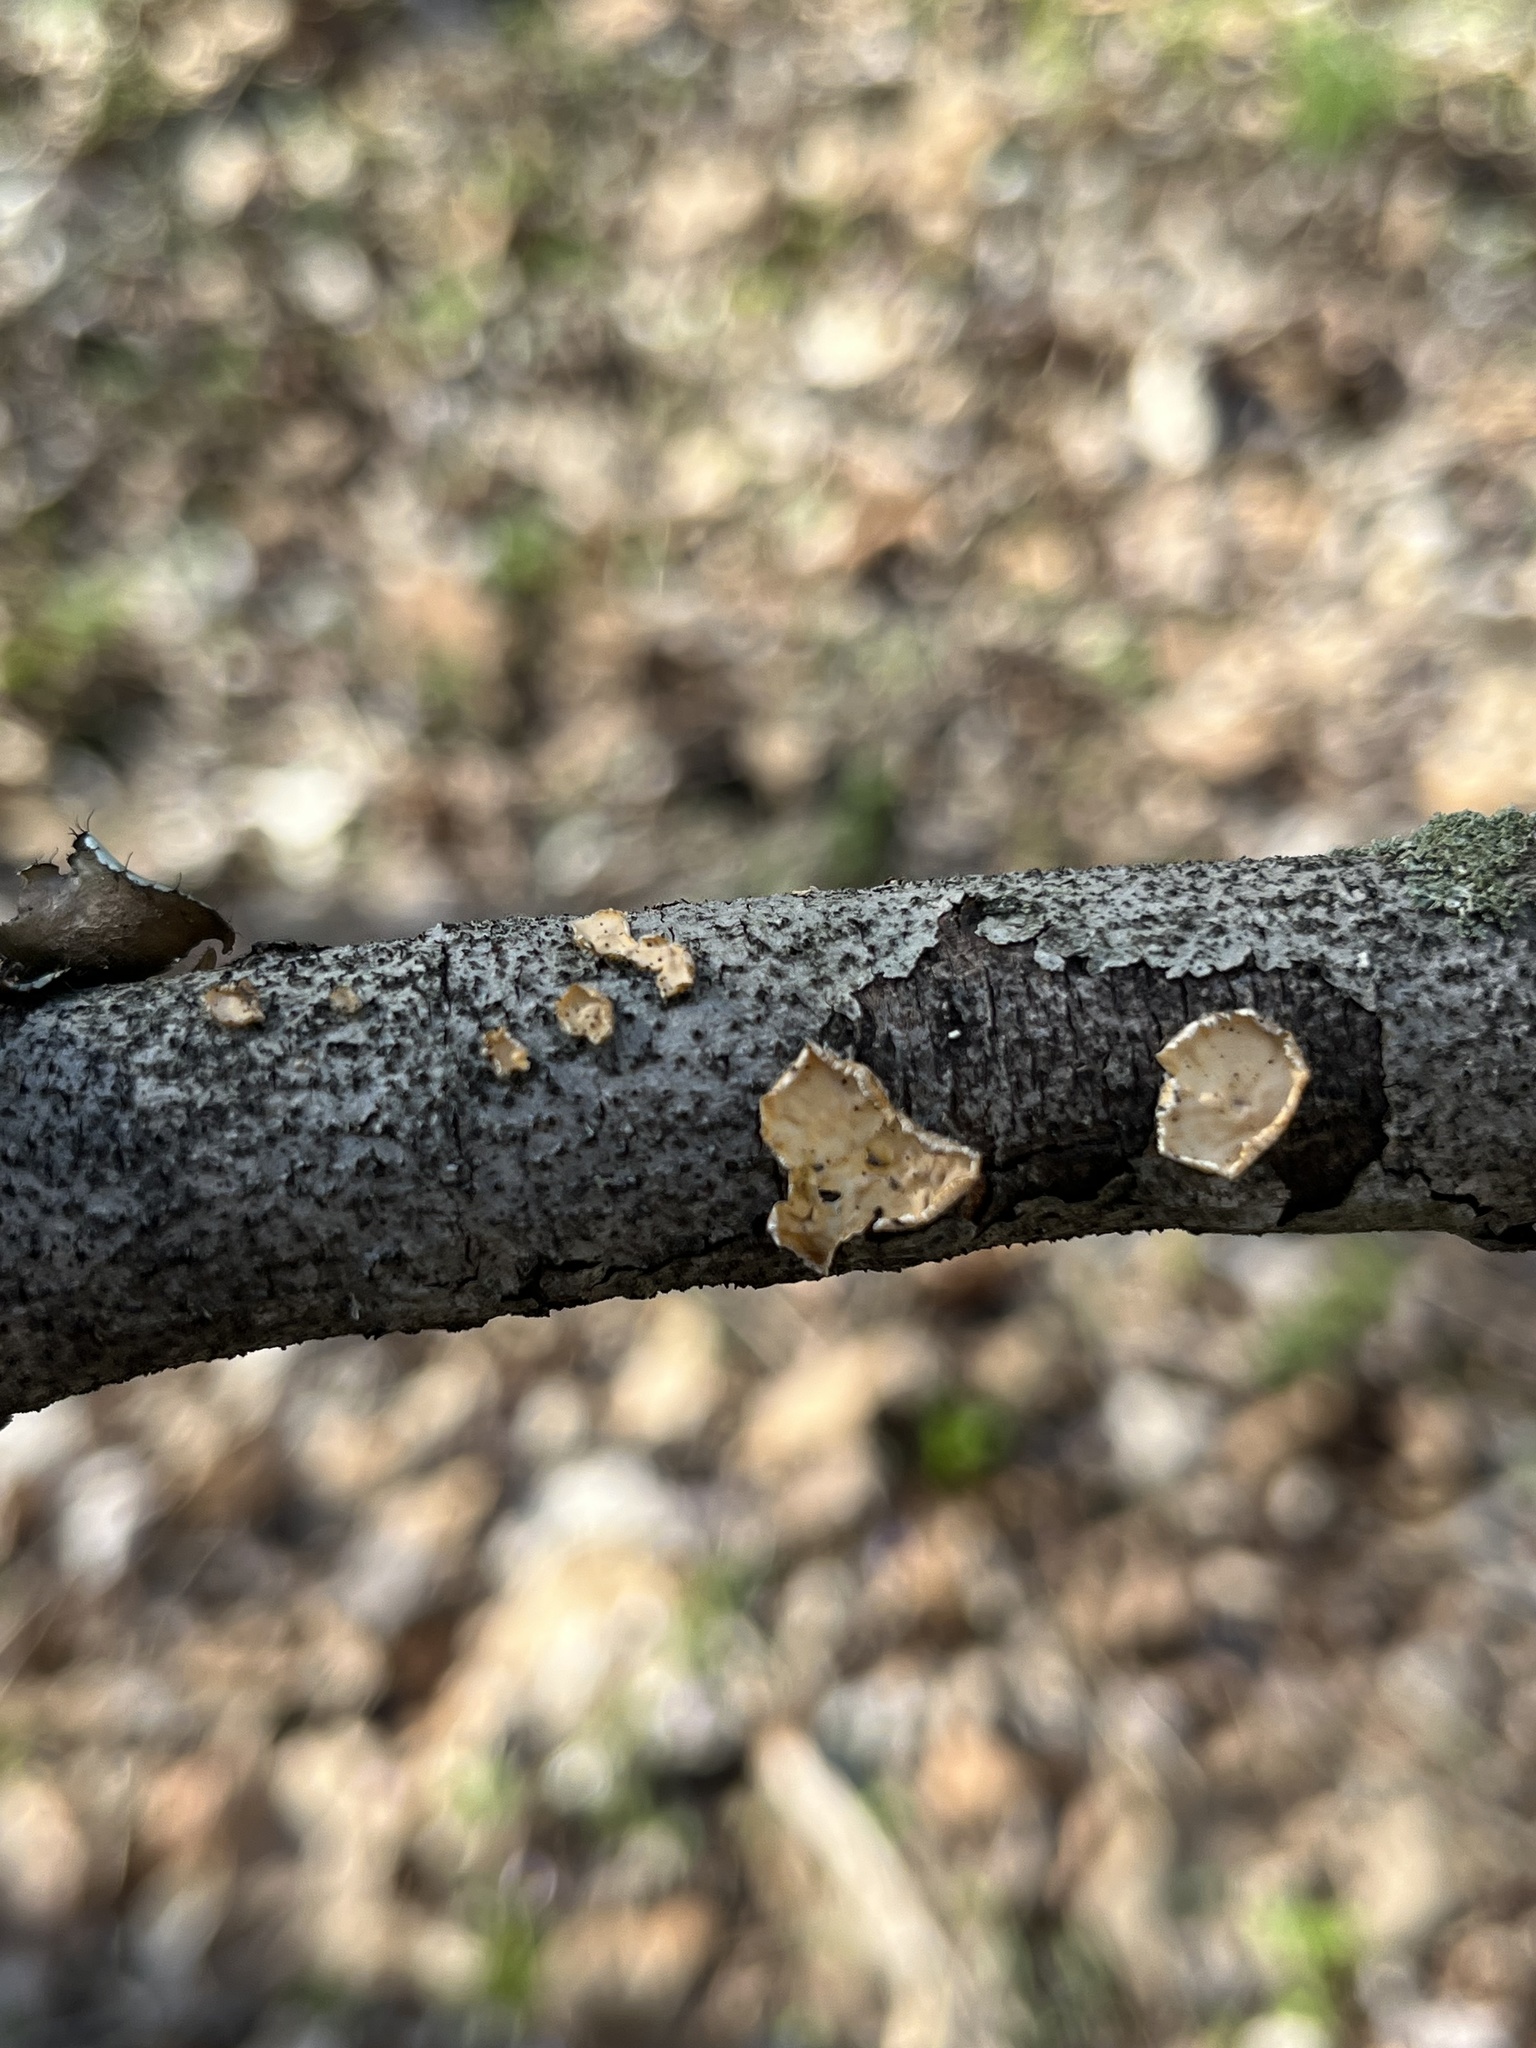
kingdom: Fungi
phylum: Basidiomycota
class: Agaricomycetes
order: Russulales
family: Stereaceae
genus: Stereum
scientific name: Stereum complicatum
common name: Crowded parchment
